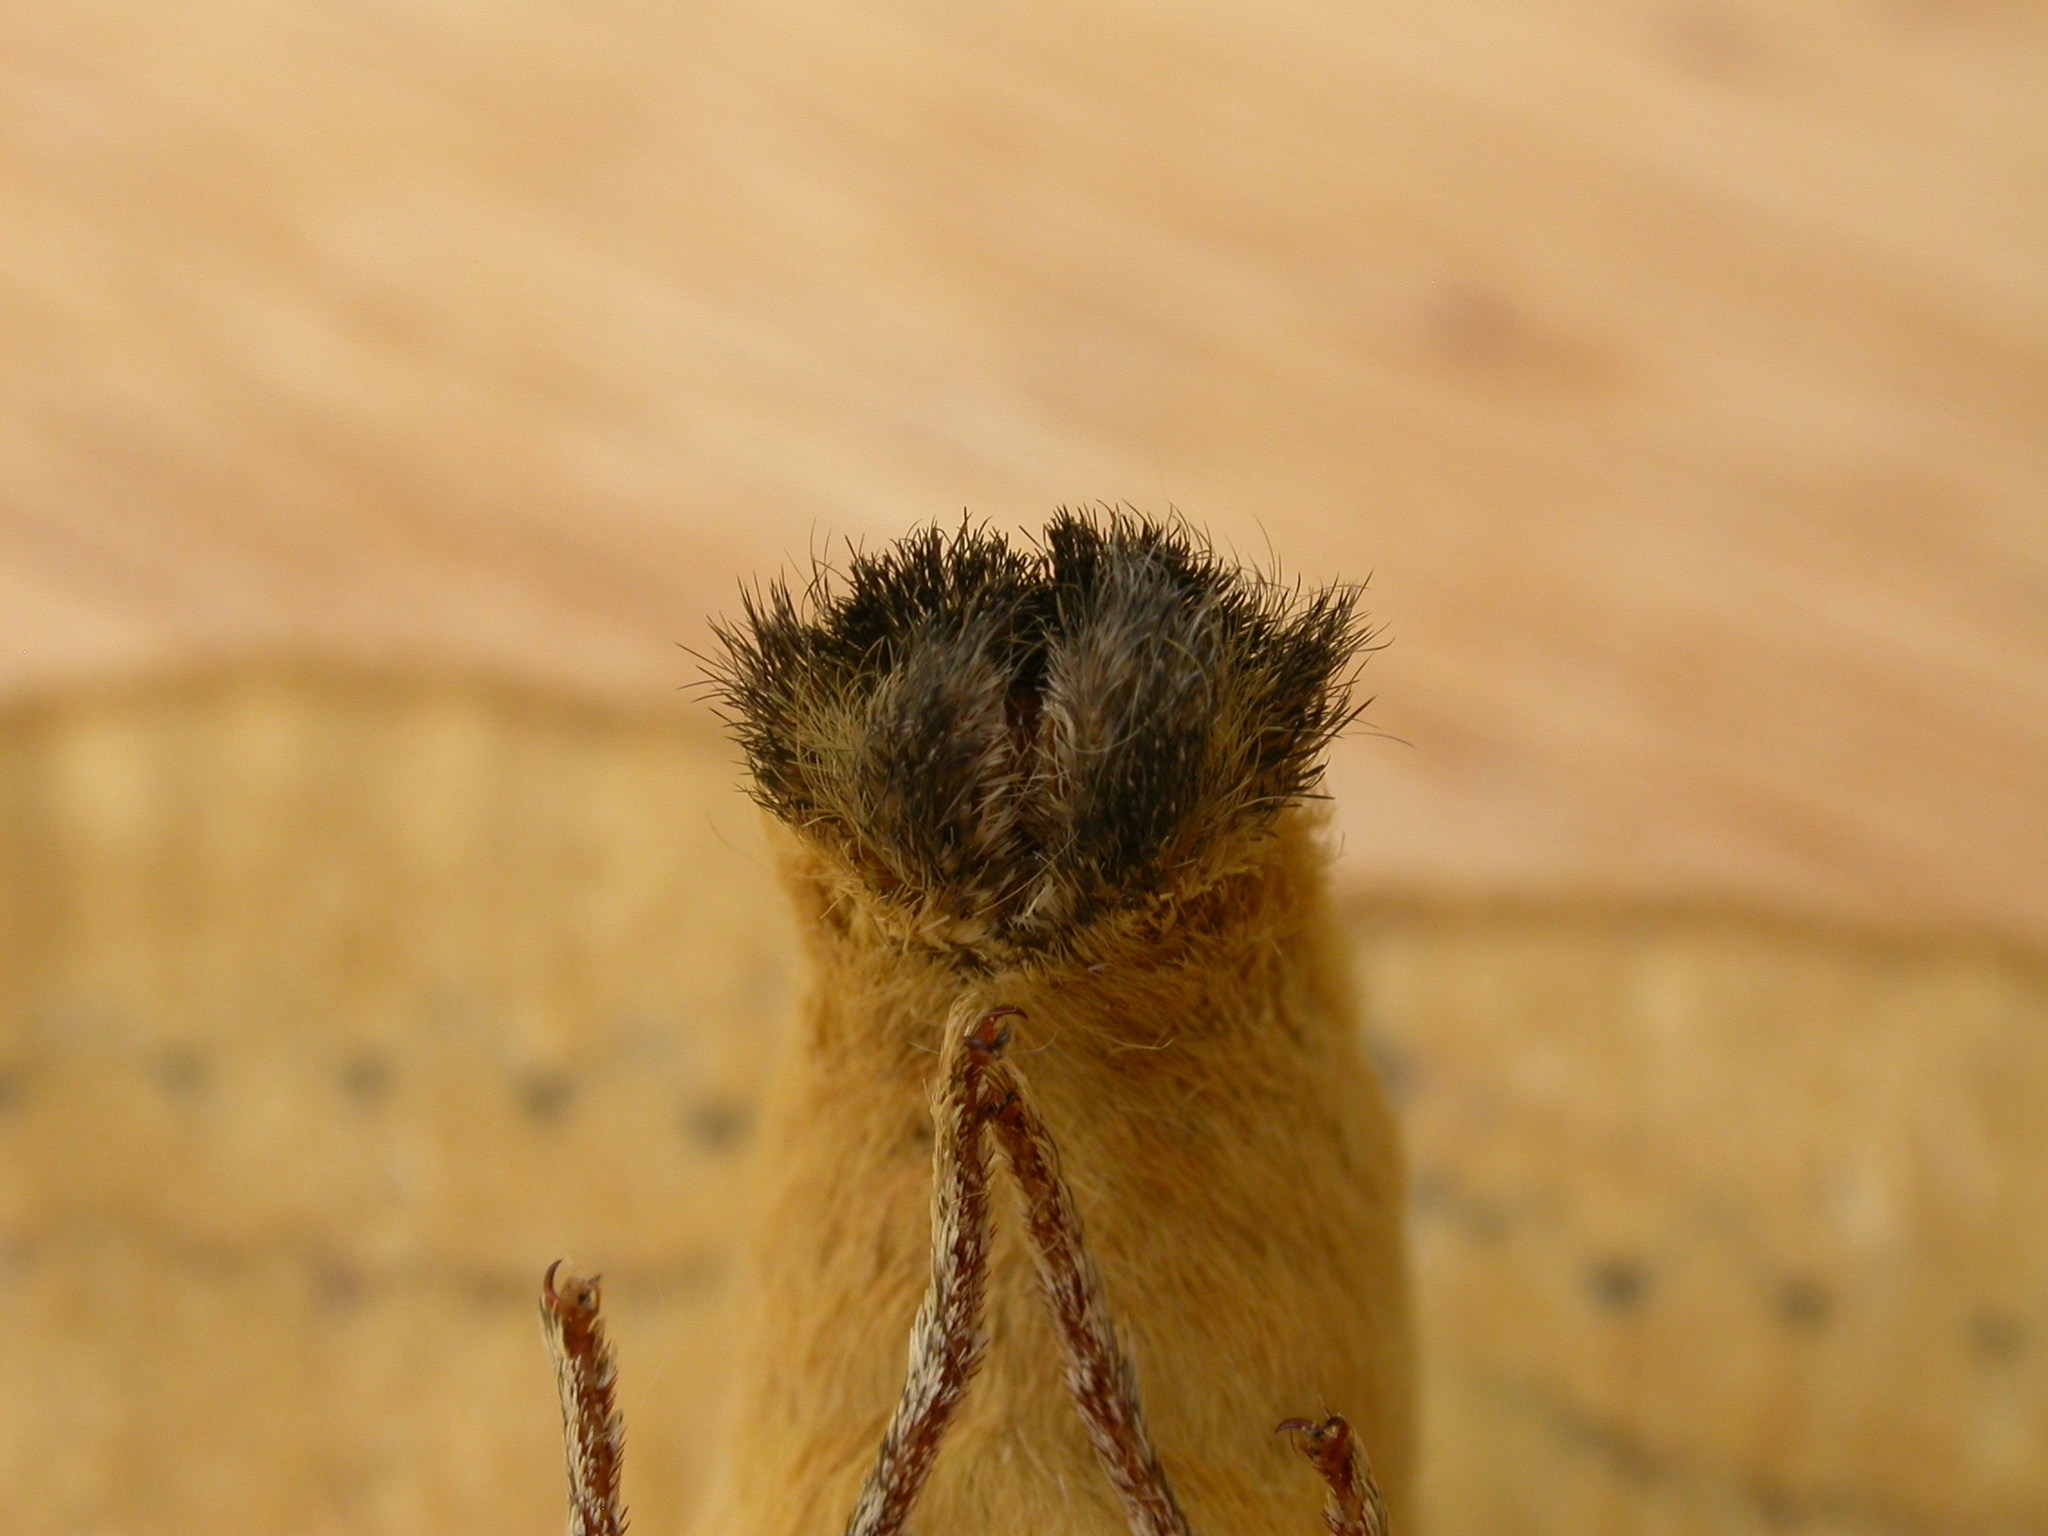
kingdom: Animalia
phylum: Arthropoda
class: Insecta
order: Lepidoptera
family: Anthelidae
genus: Anthela
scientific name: Anthela varia
